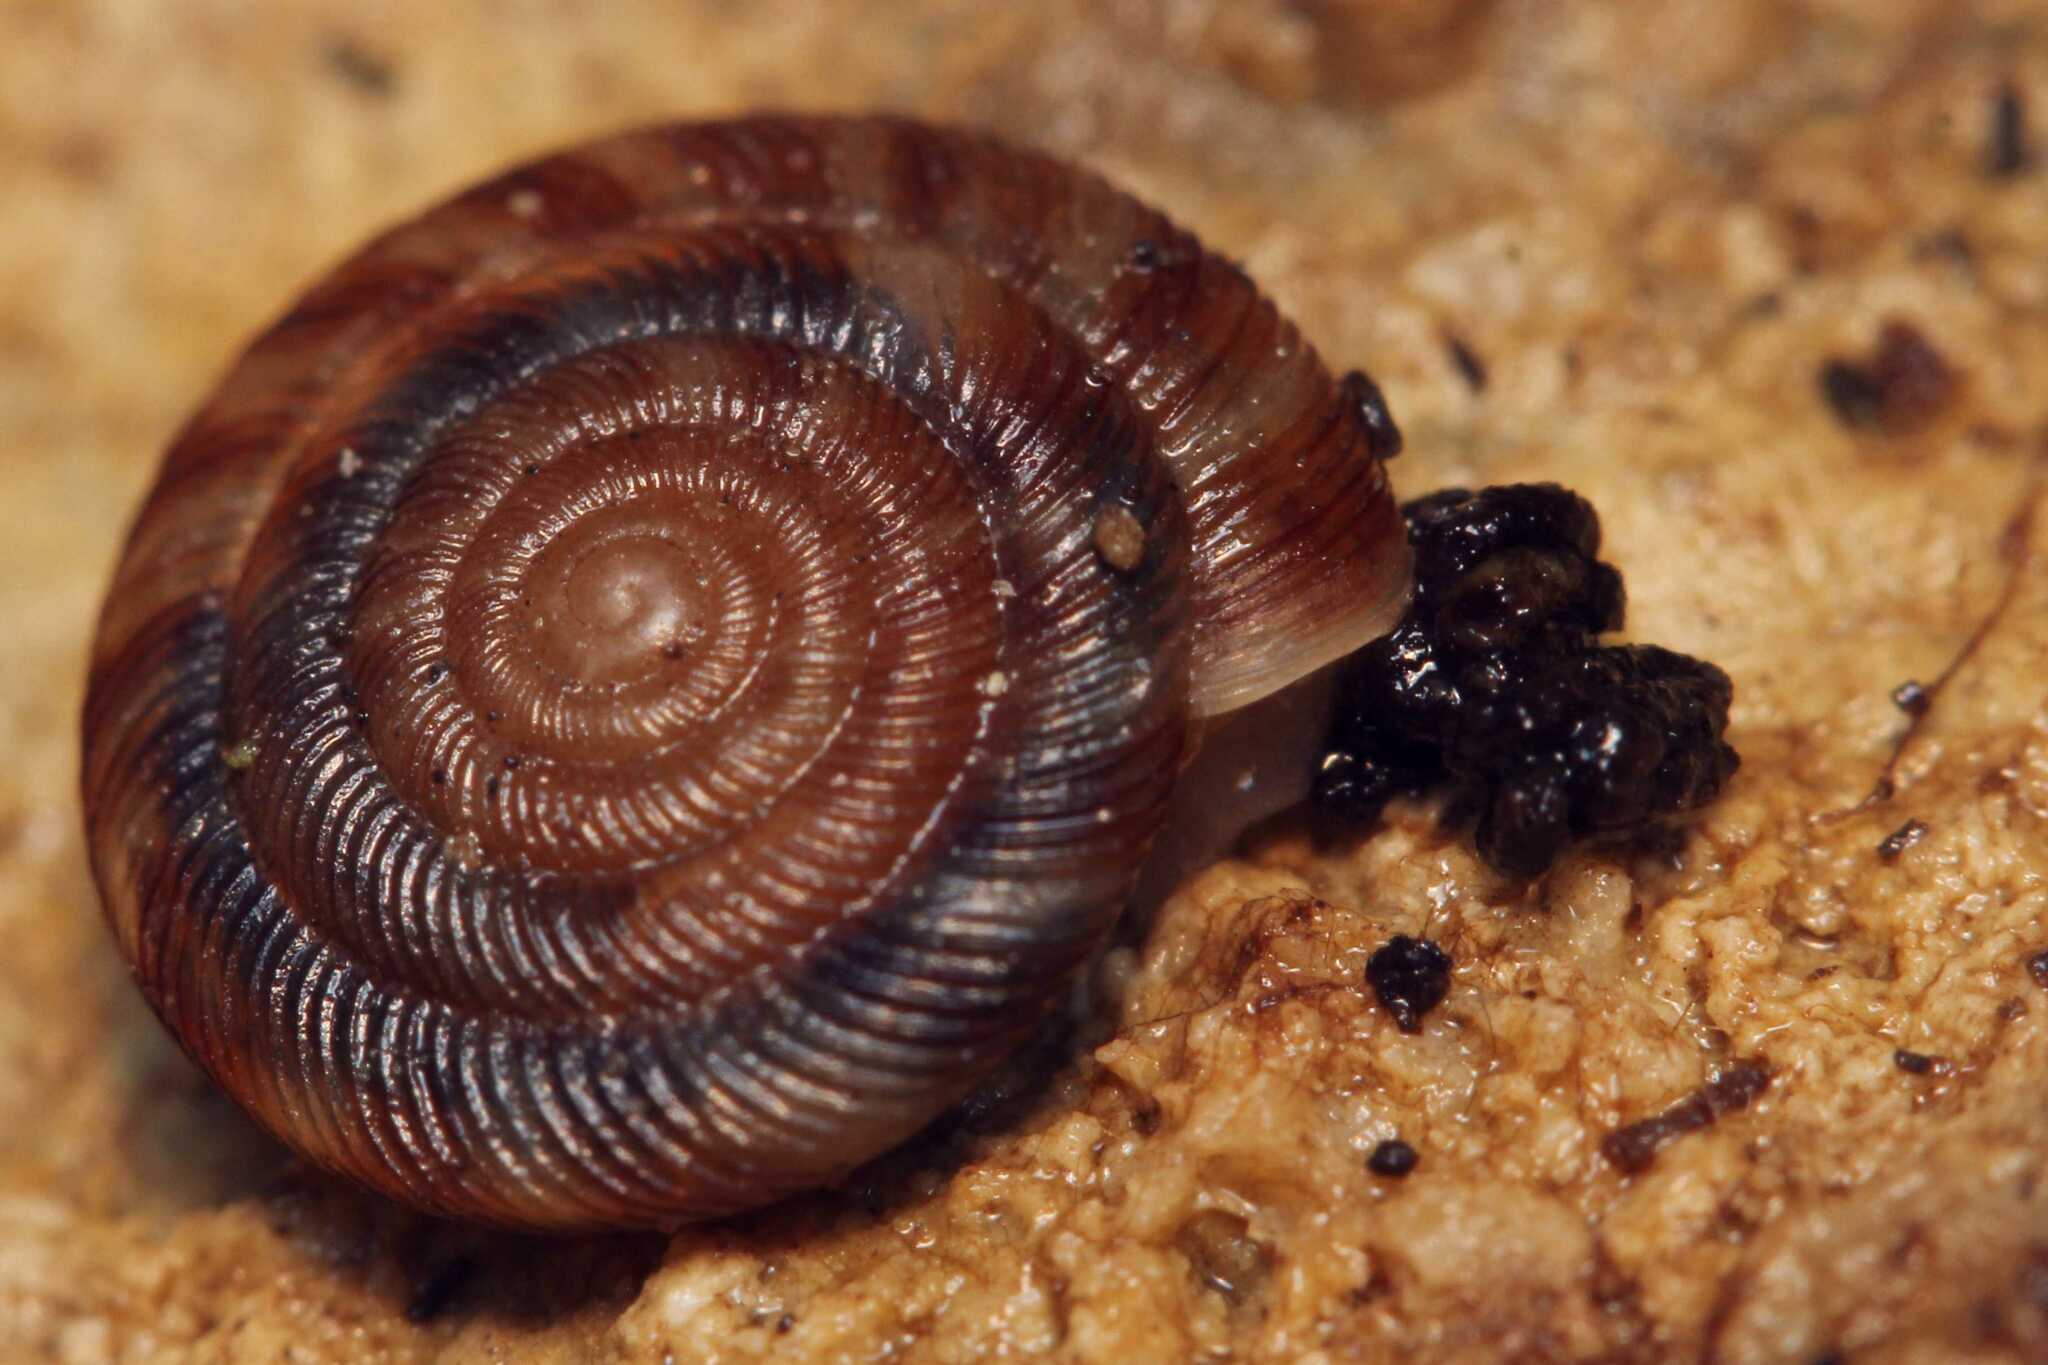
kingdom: Animalia
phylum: Mollusca
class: Gastropoda
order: Stylommatophora
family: Discidae
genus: Discus
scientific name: Discus rotundatus
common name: Rounded snail
